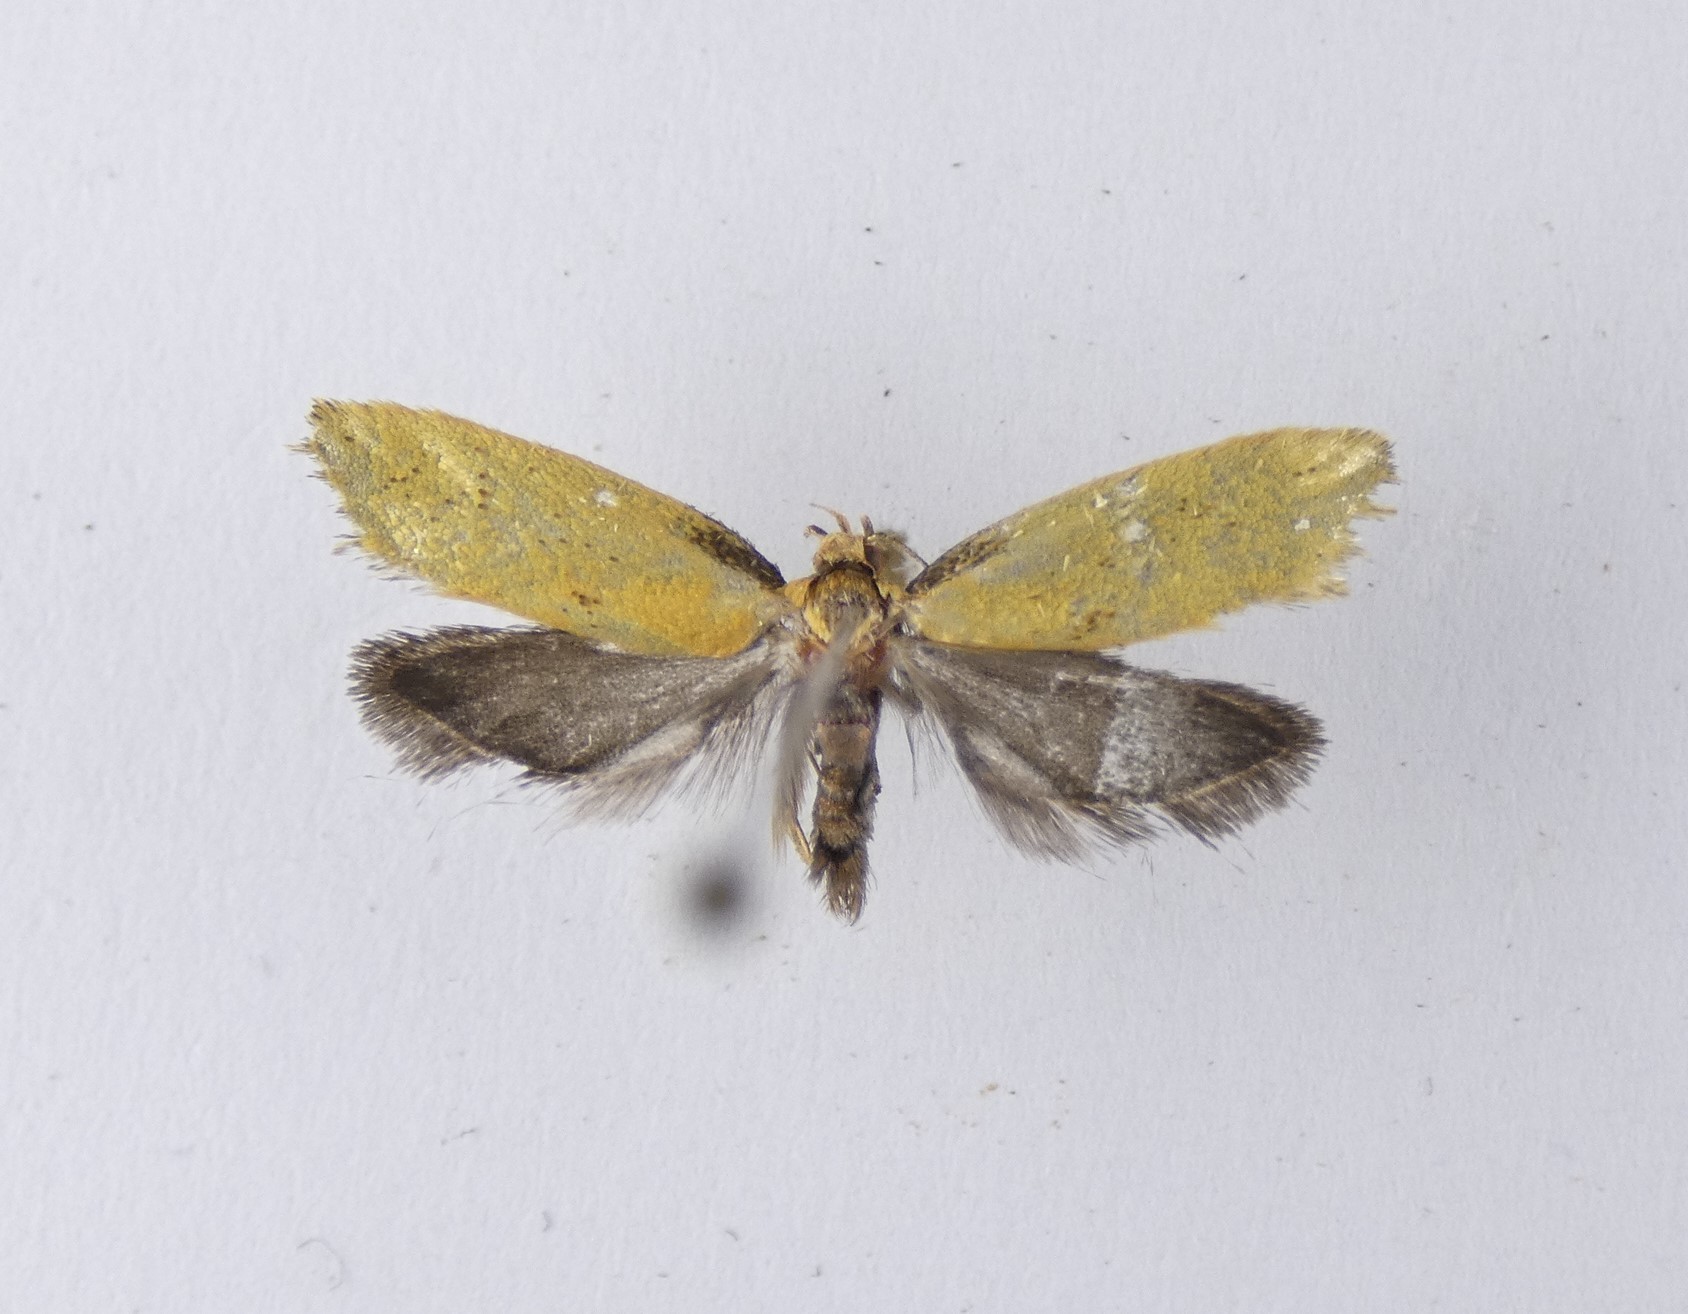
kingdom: Animalia
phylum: Arthropoda
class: Insecta
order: Lepidoptera
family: Oecophoridae
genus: Tingena
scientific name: Tingena armigerella
